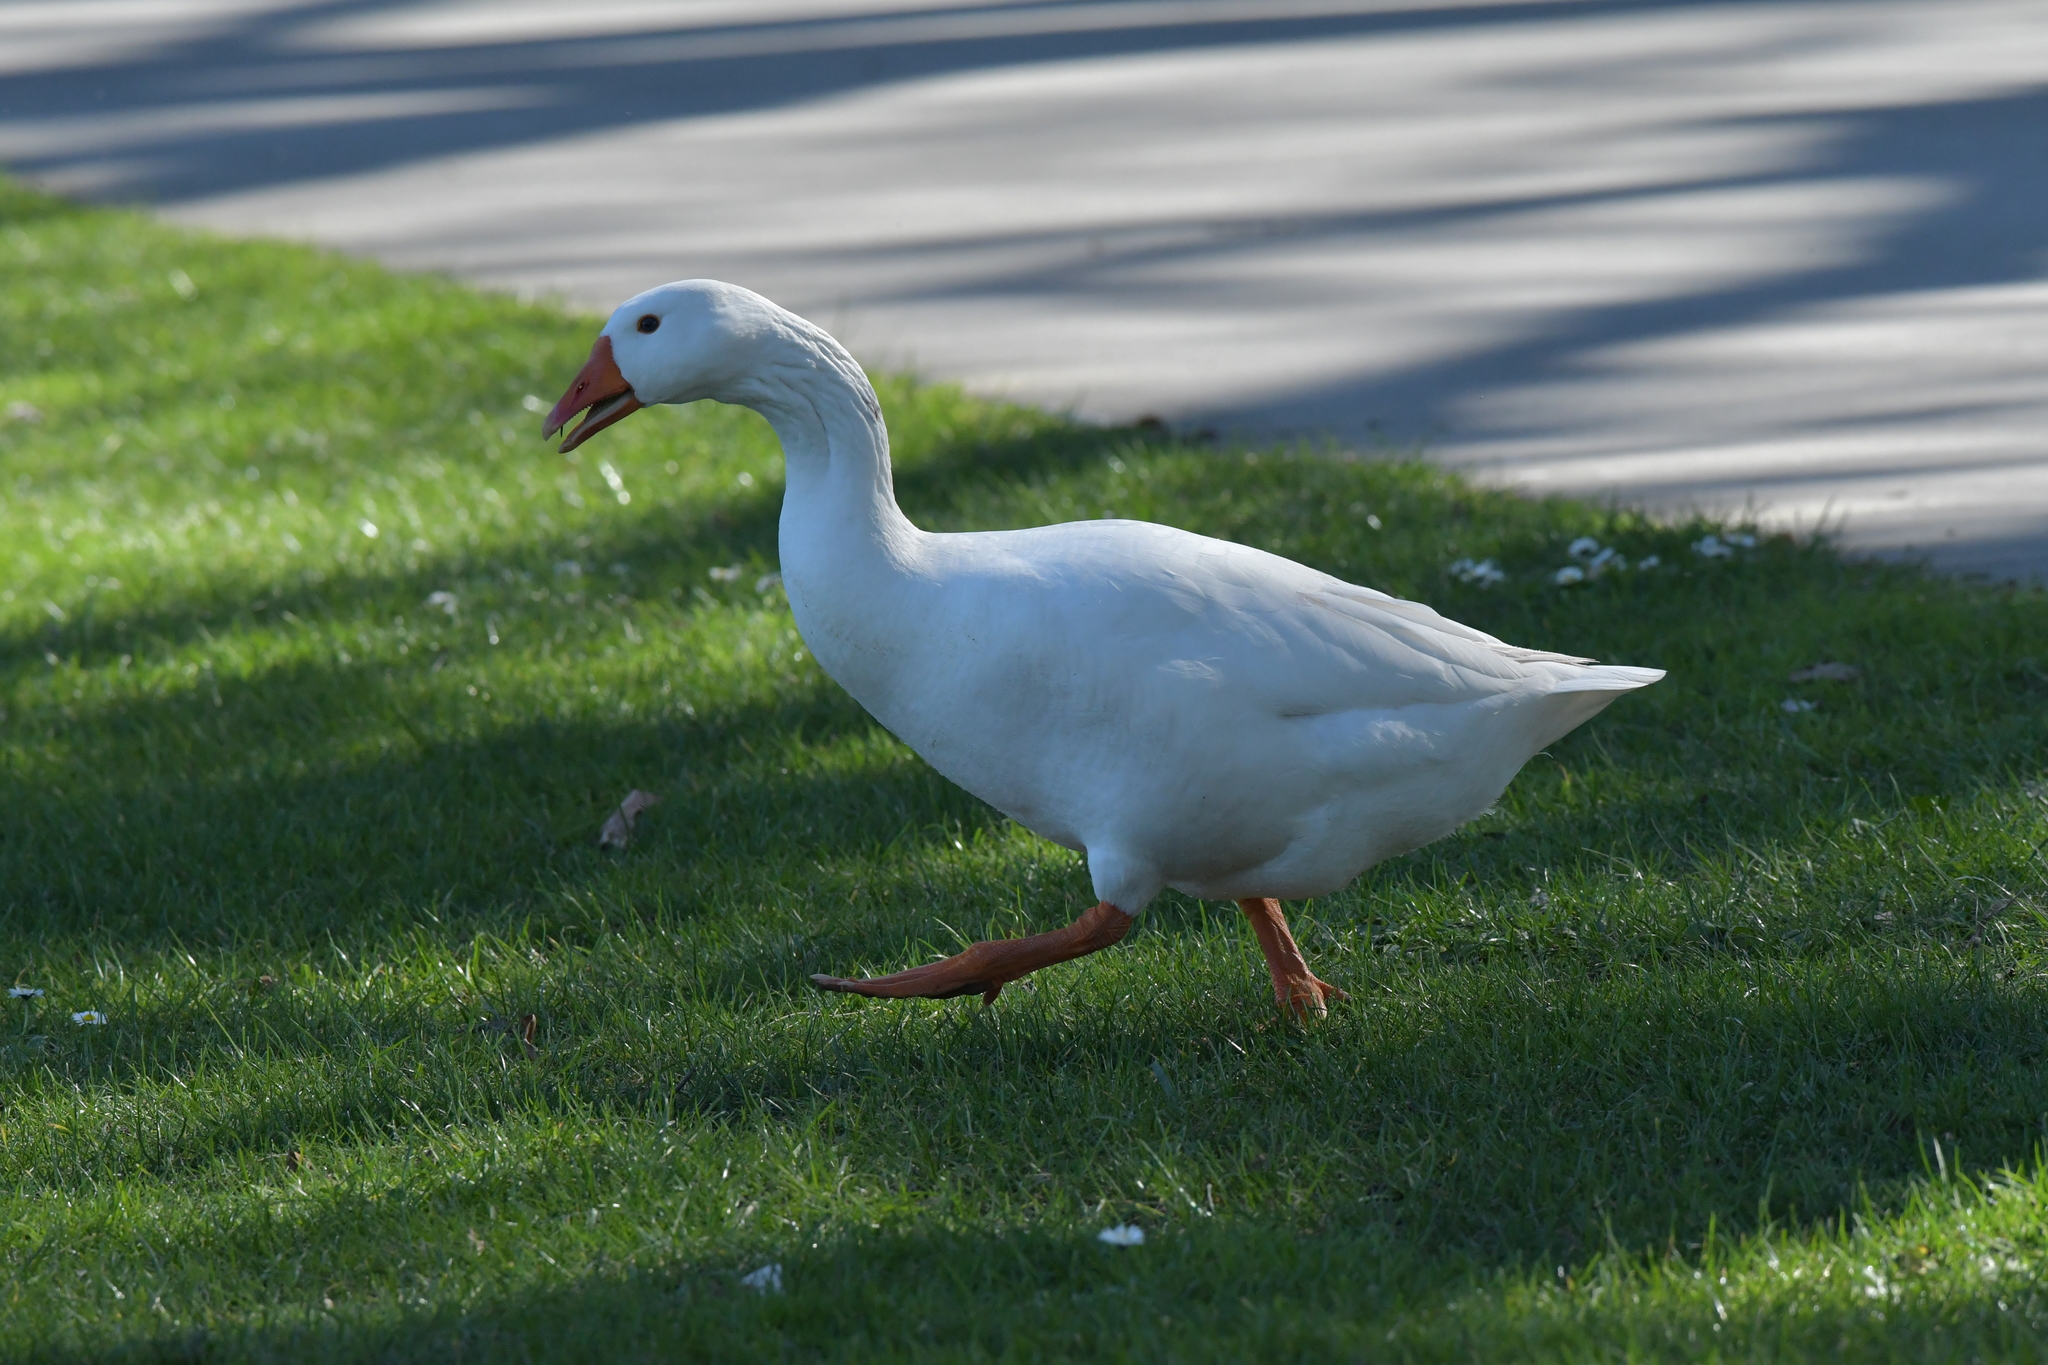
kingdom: Animalia
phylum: Chordata
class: Aves
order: Anseriformes
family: Anatidae
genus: Anser
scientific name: Anser anser
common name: Greylag goose
